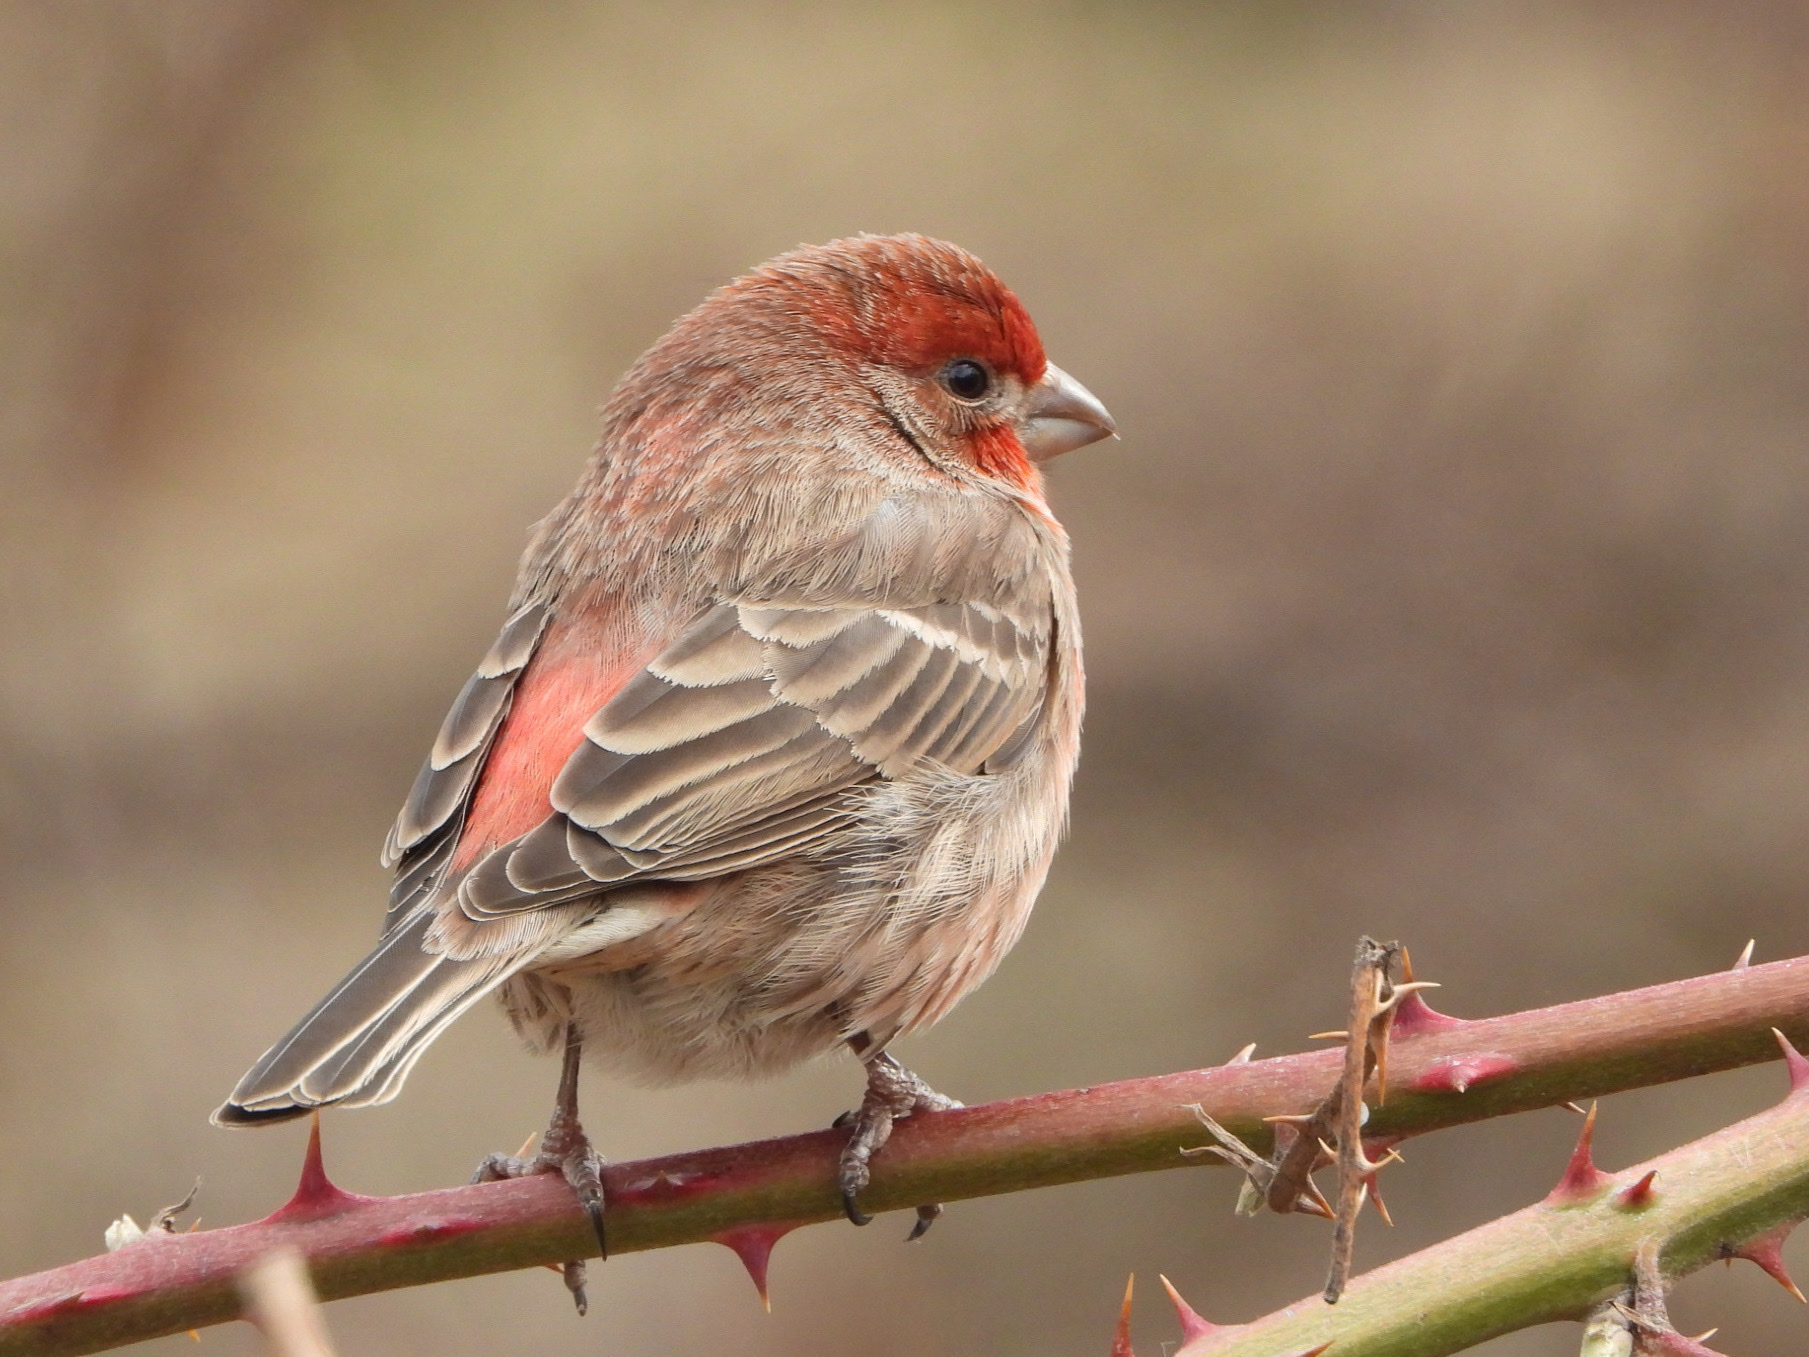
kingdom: Animalia
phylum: Chordata
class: Aves
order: Passeriformes
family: Fringillidae
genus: Haemorhous
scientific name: Haemorhous mexicanus
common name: House finch
